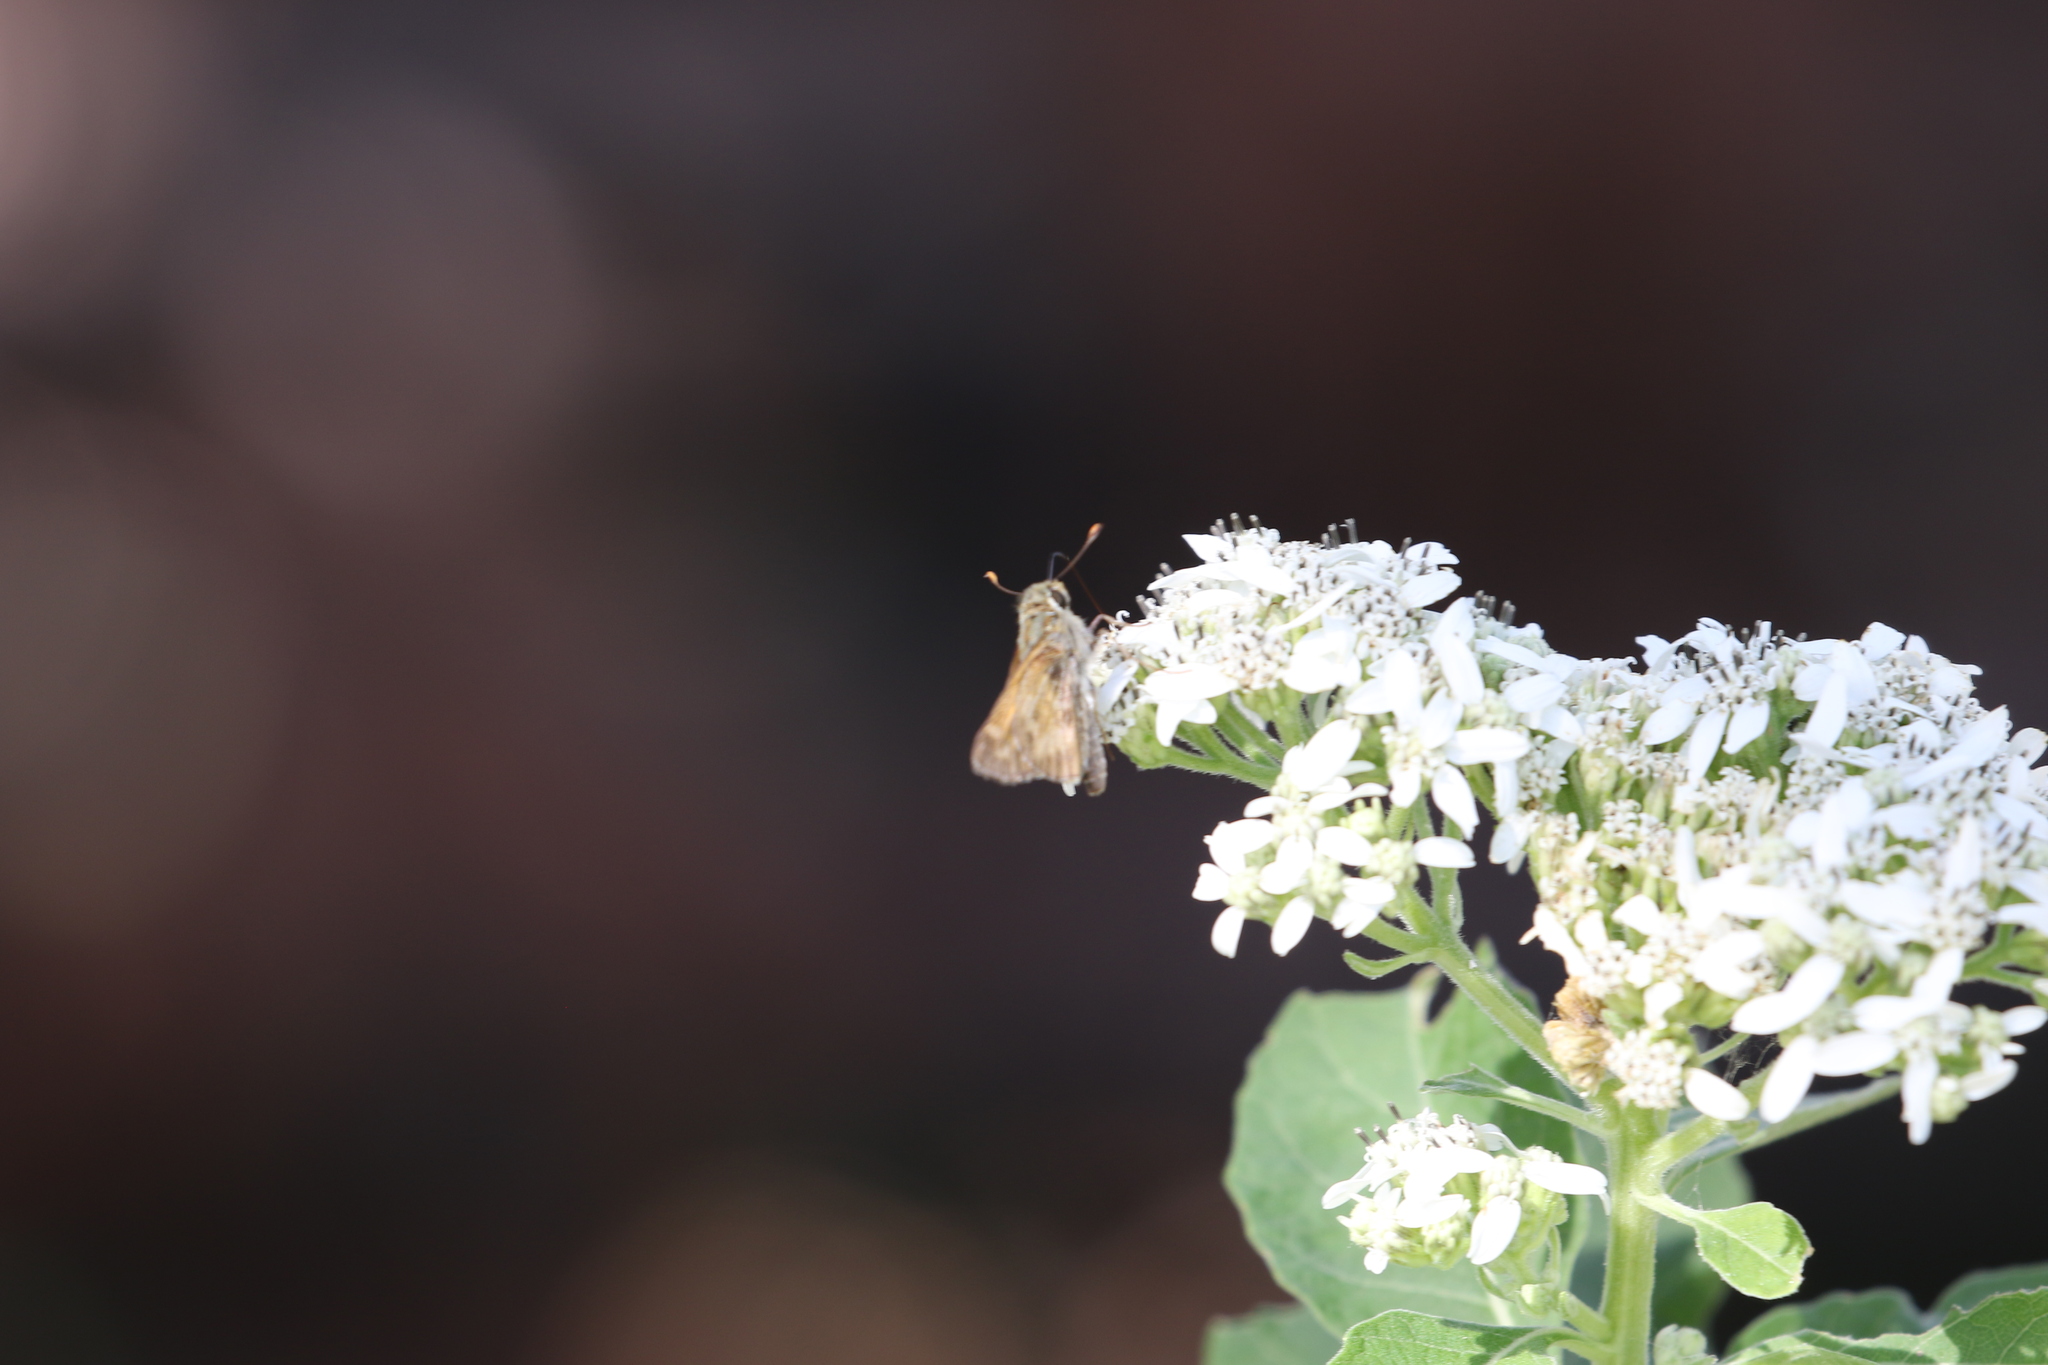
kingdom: Animalia
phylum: Arthropoda
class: Insecta
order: Lepidoptera
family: Hesperiidae
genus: Atalopedes
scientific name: Atalopedes
